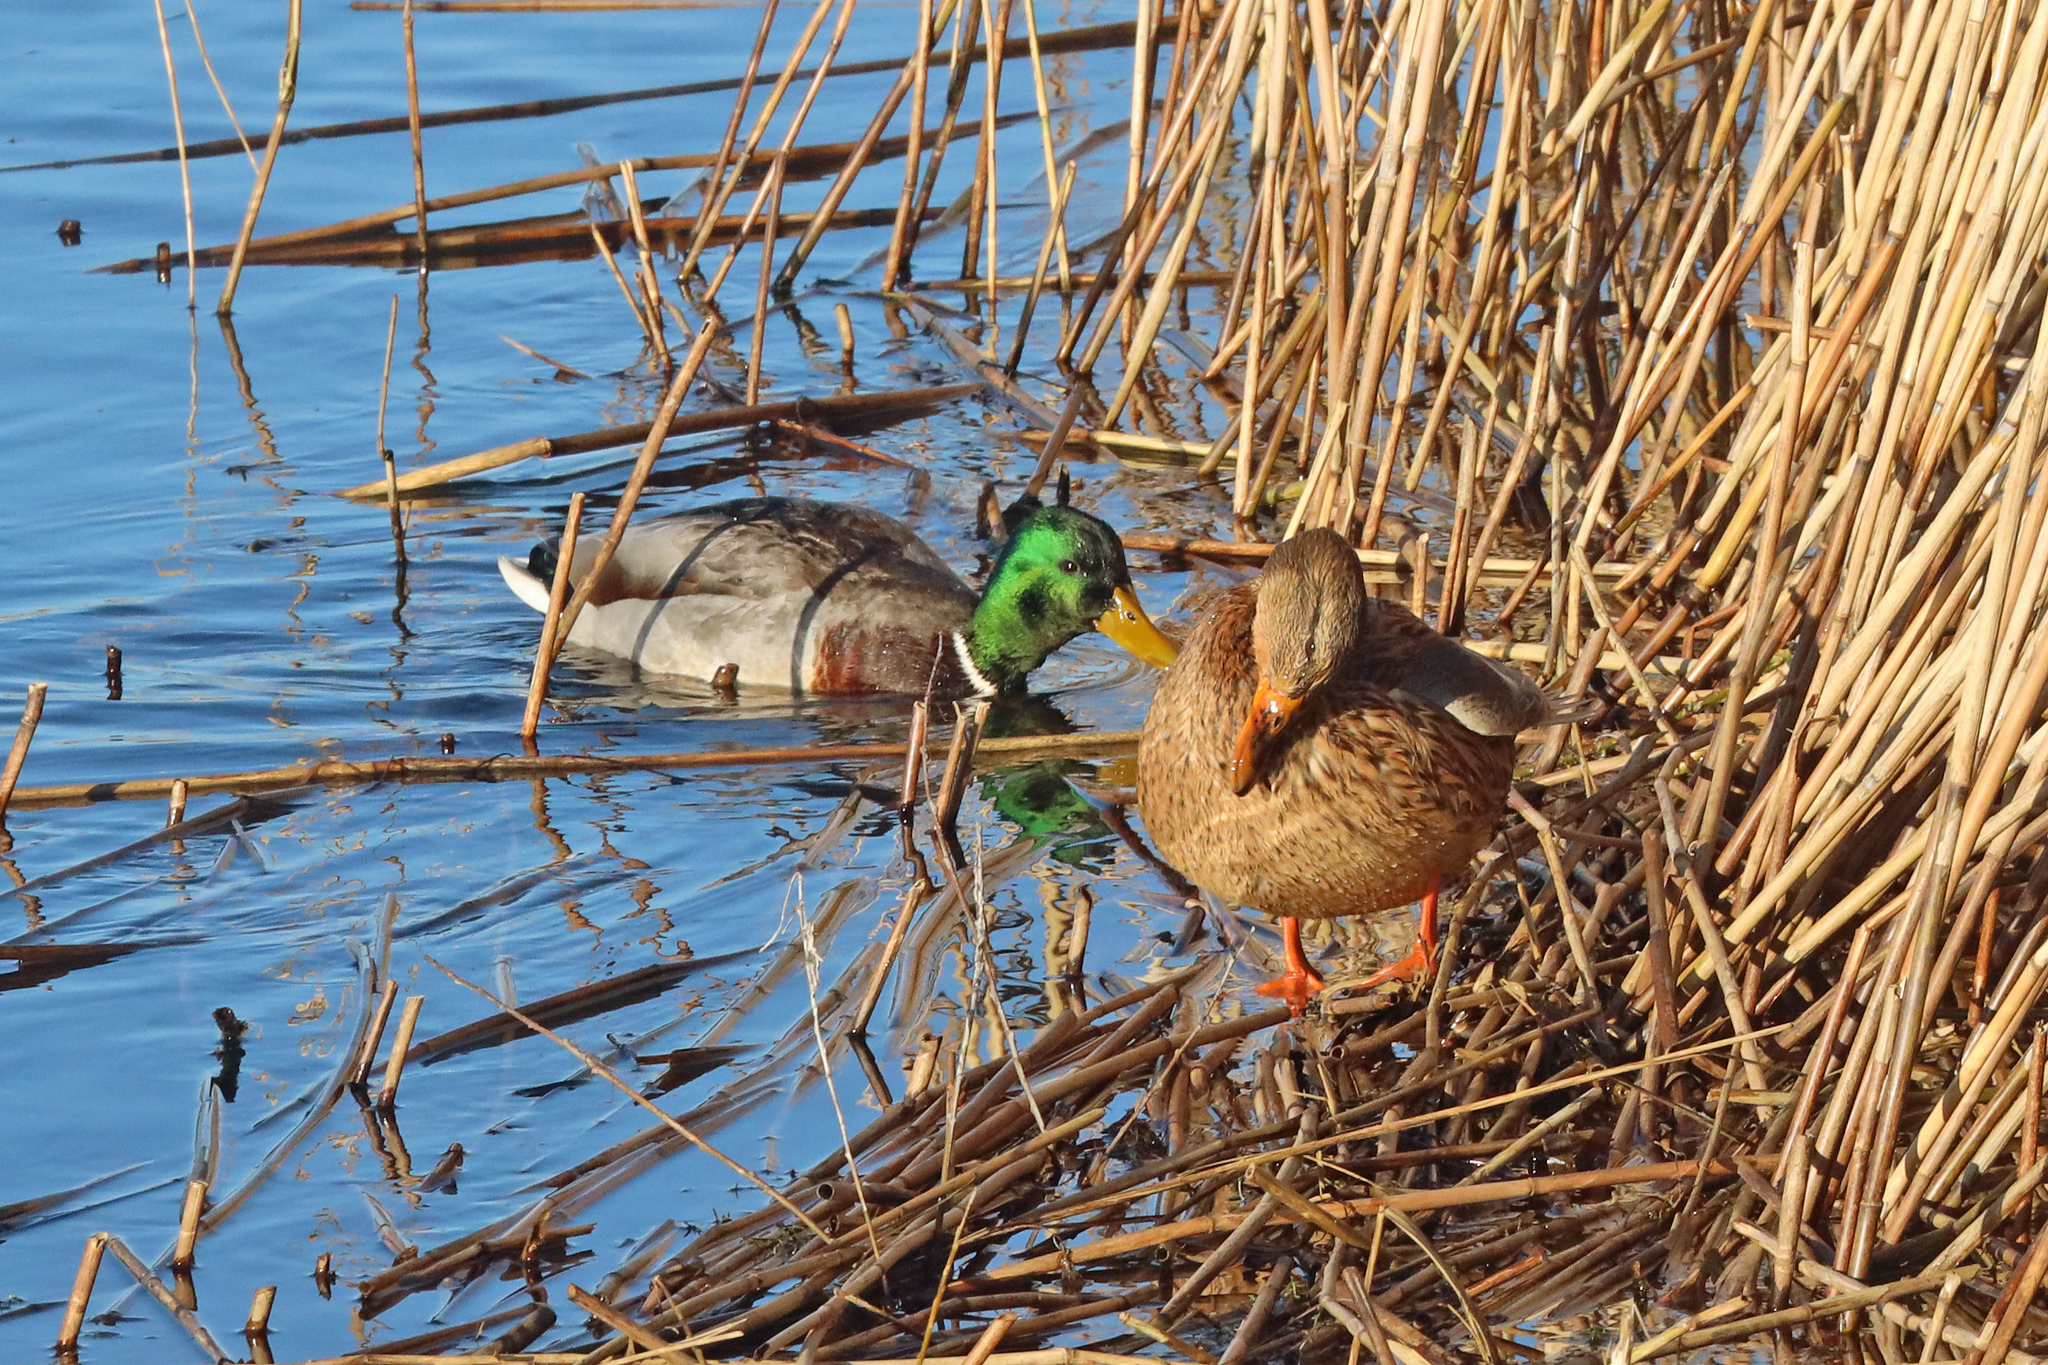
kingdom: Animalia
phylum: Chordata
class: Aves
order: Anseriformes
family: Anatidae
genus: Anas
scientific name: Anas platyrhynchos
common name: Mallard
